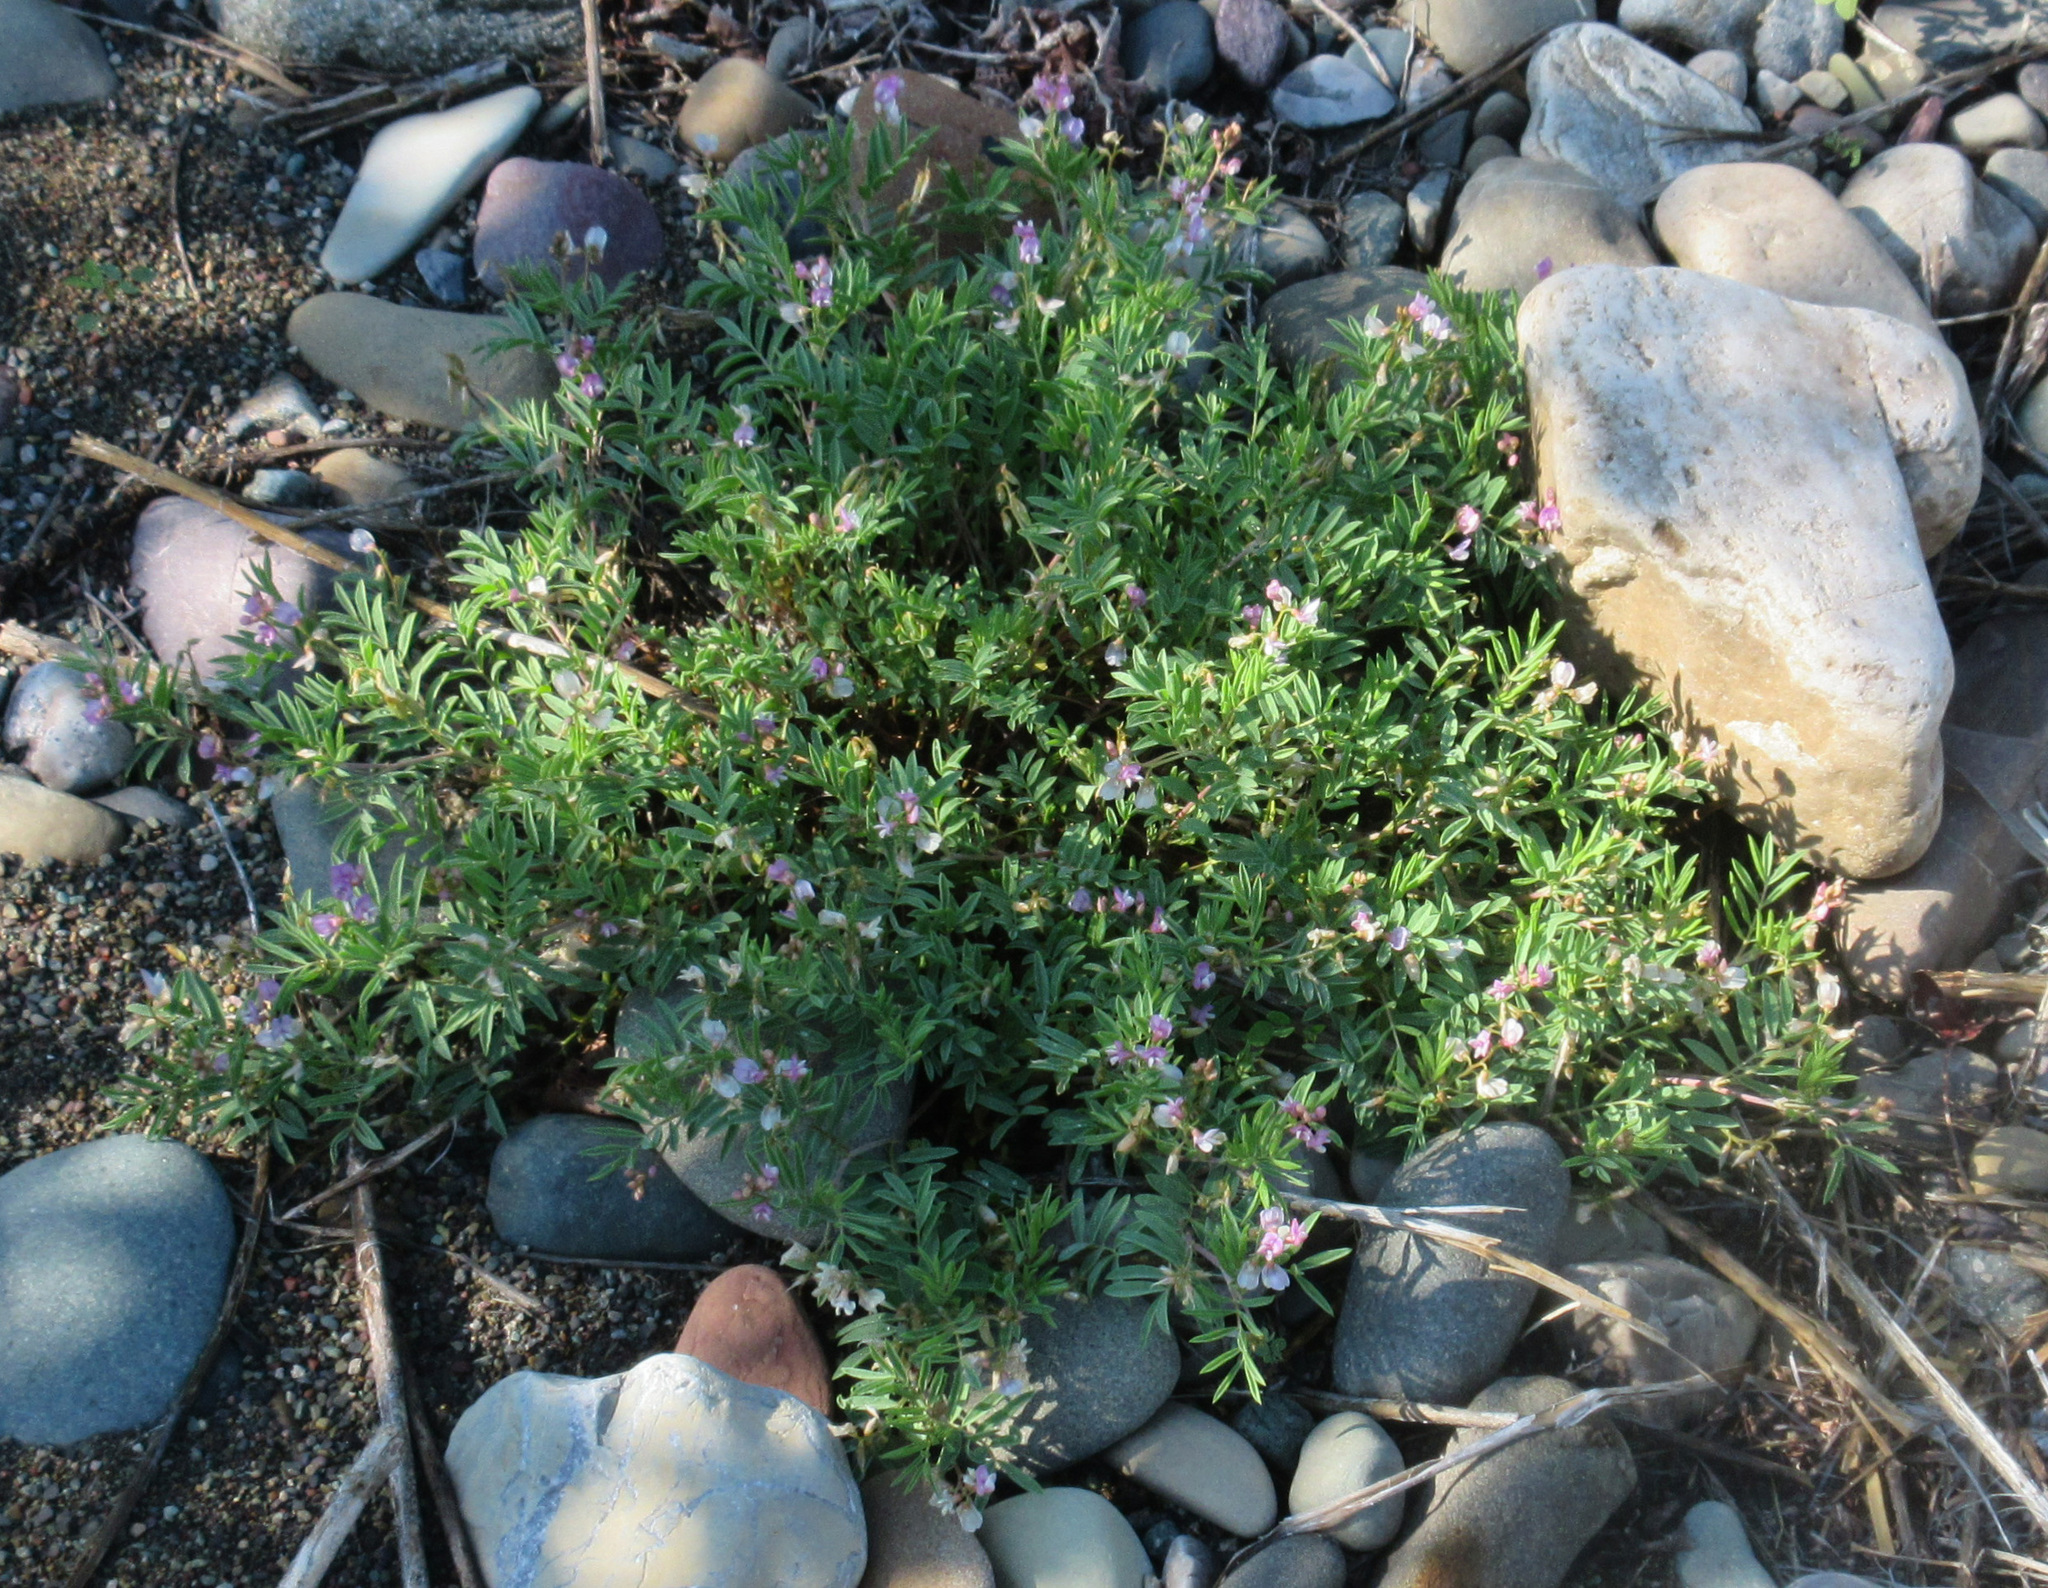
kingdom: Plantae
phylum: Tracheophyta
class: Magnoliopsida
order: Fabales
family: Fabaceae
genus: Astragalus
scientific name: Astragalus vexilliflexus
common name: Bent-flowered milk-vetch
